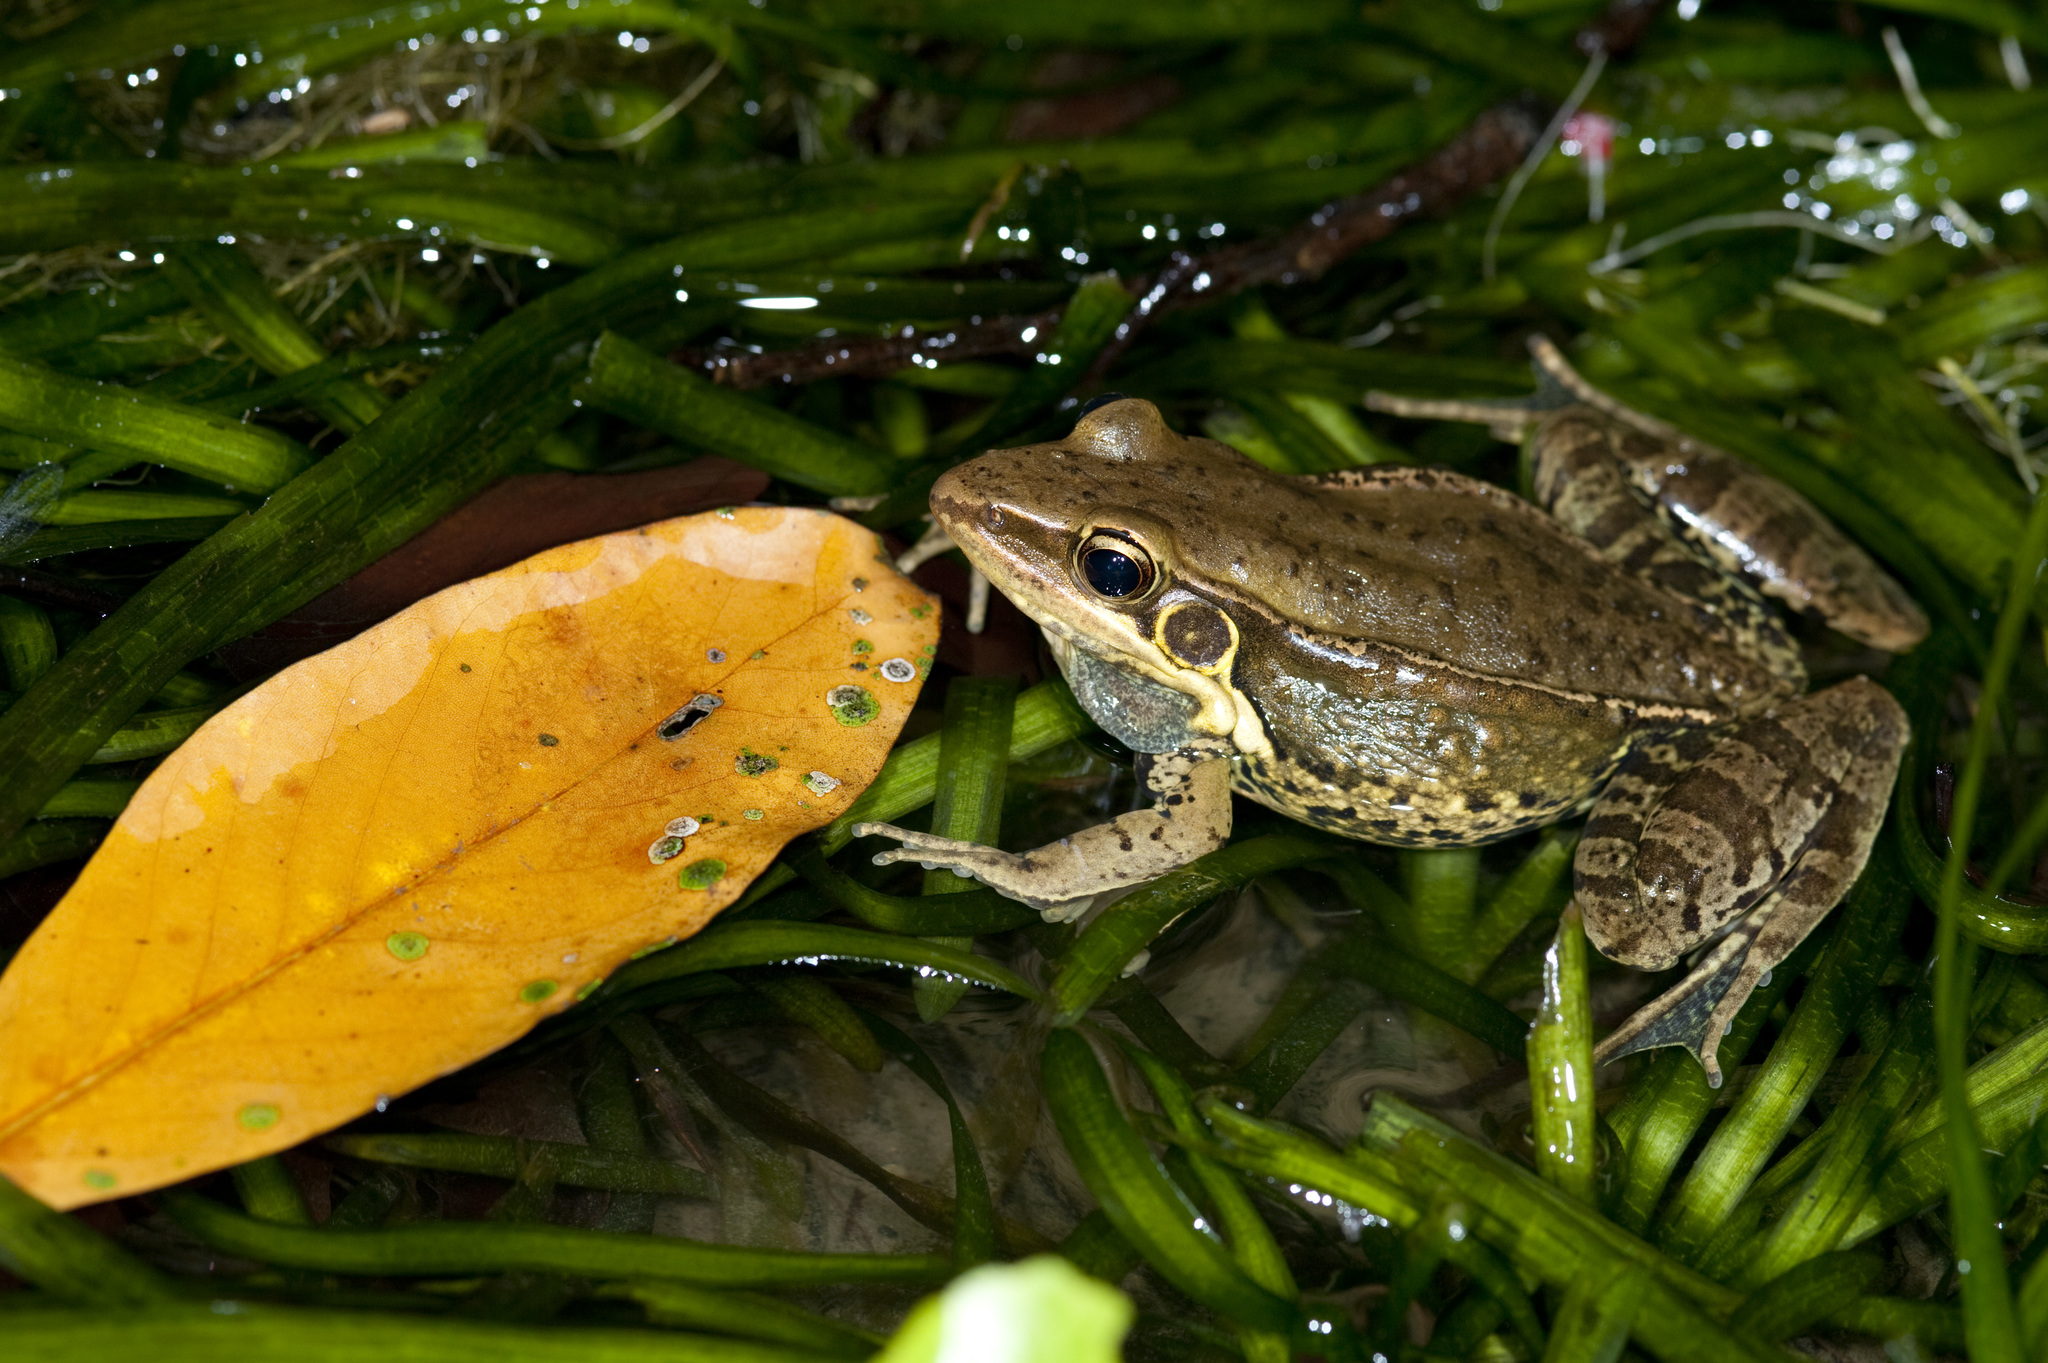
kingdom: Animalia
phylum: Chordata
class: Amphibia
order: Anura
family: Ranidae
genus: Sylvirana
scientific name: Sylvirana guentheri
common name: Guenther's amoy frog
